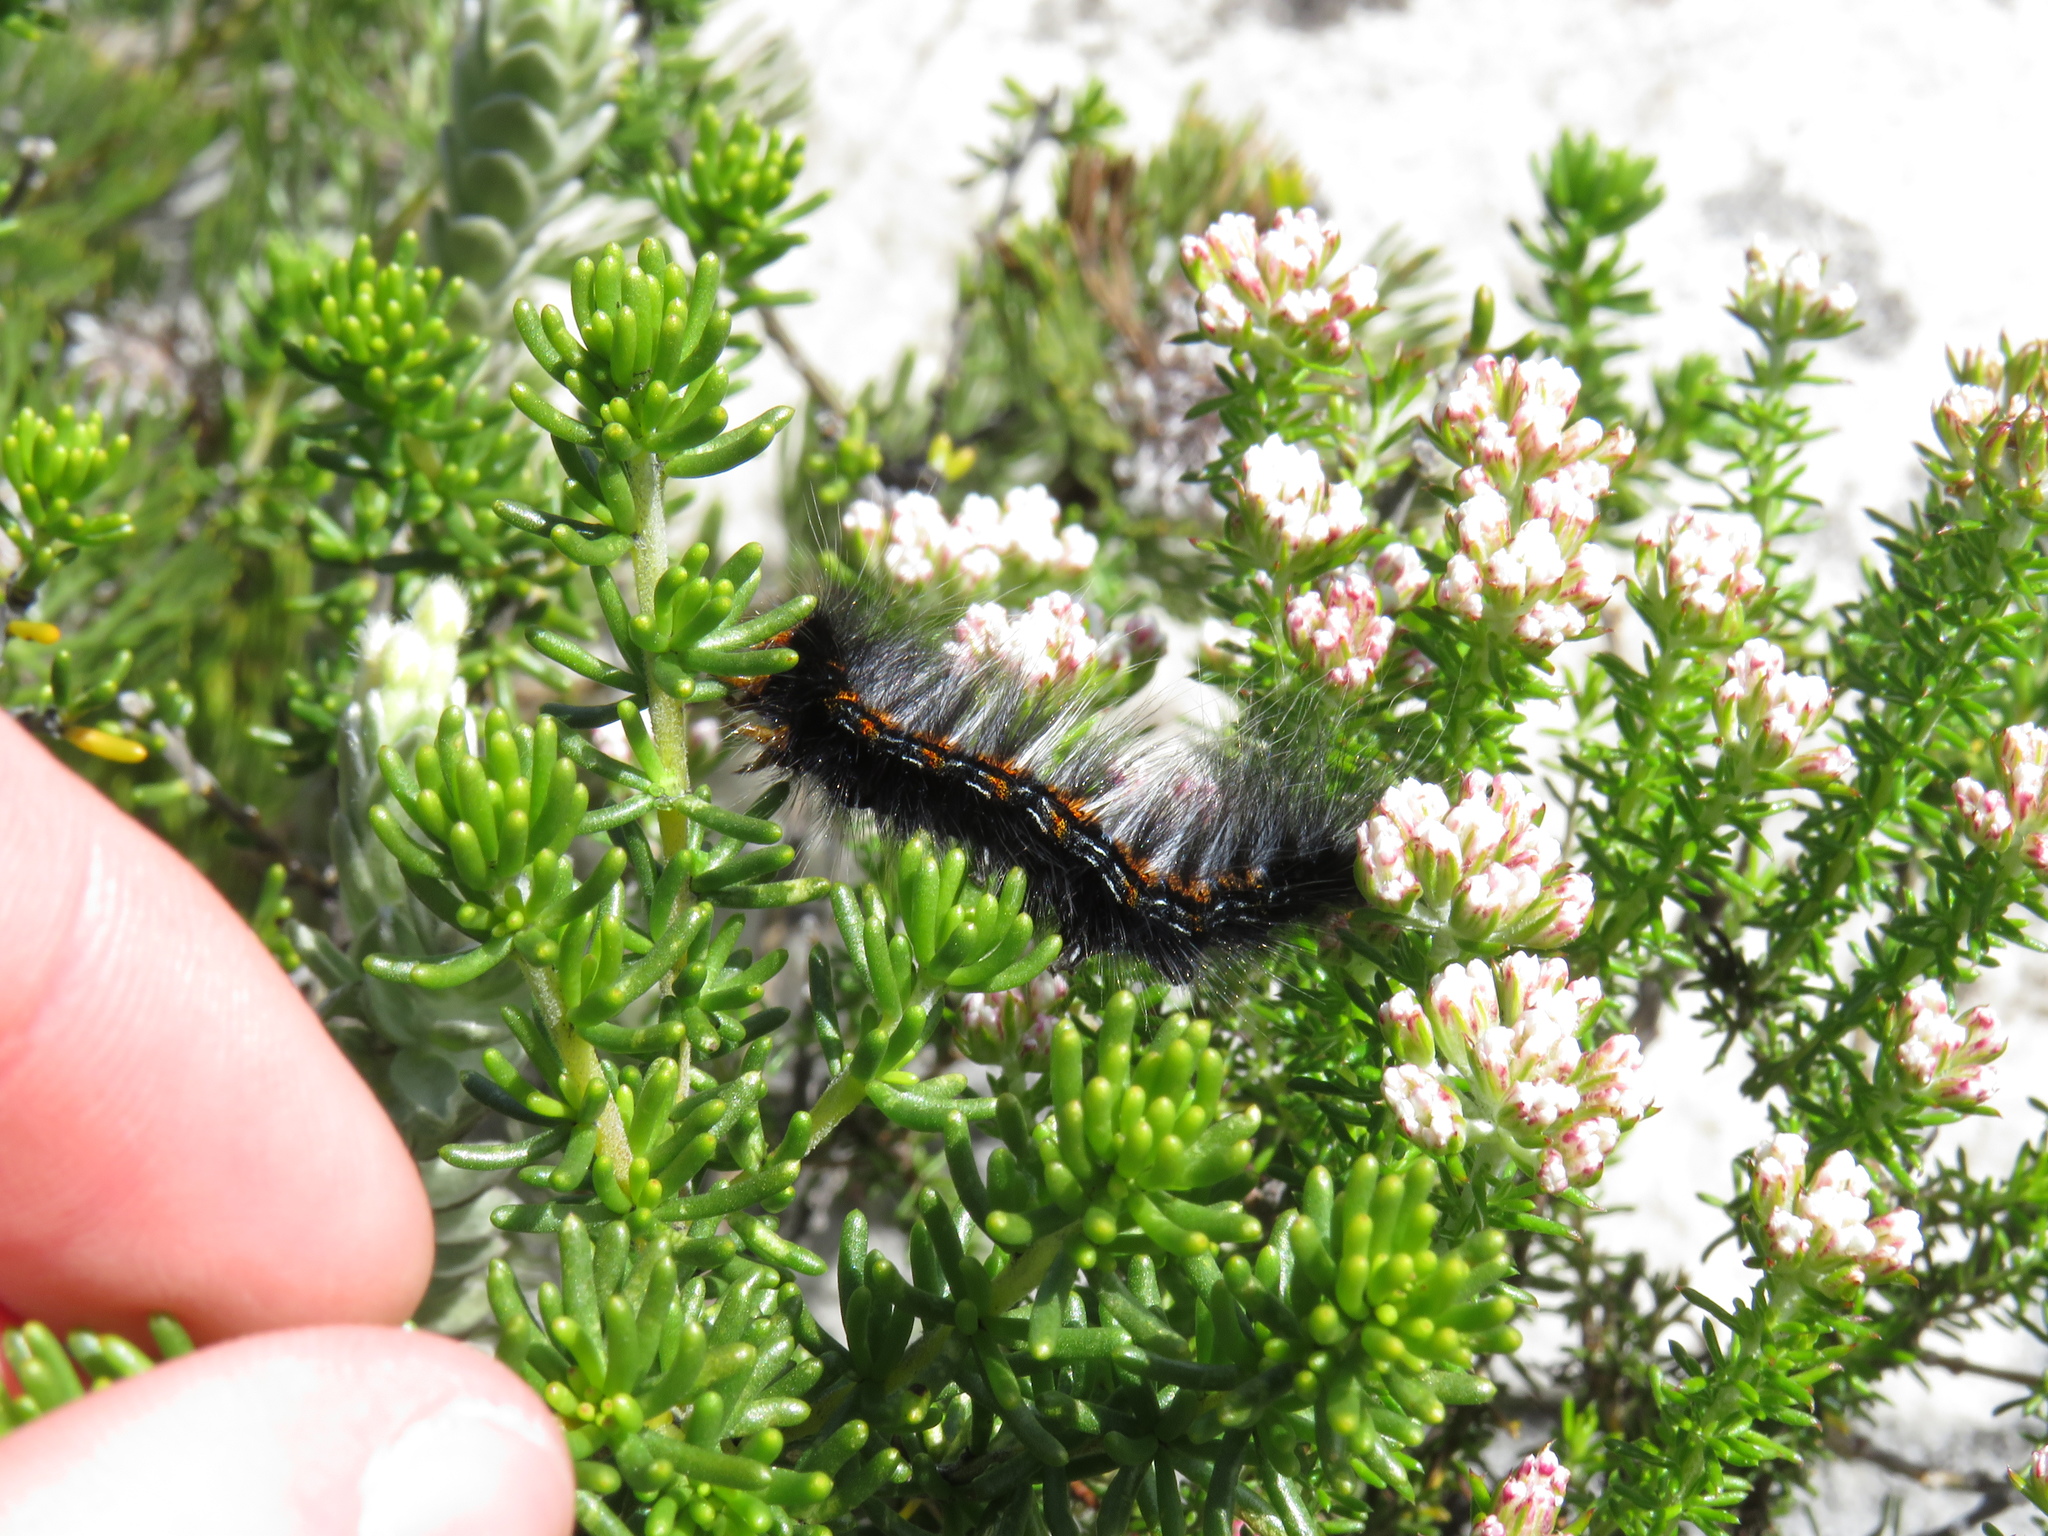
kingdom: Animalia
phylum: Arthropoda
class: Insecta
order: Lepidoptera
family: Lasiocampidae
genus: Mesocelis
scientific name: Mesocelis monticola
